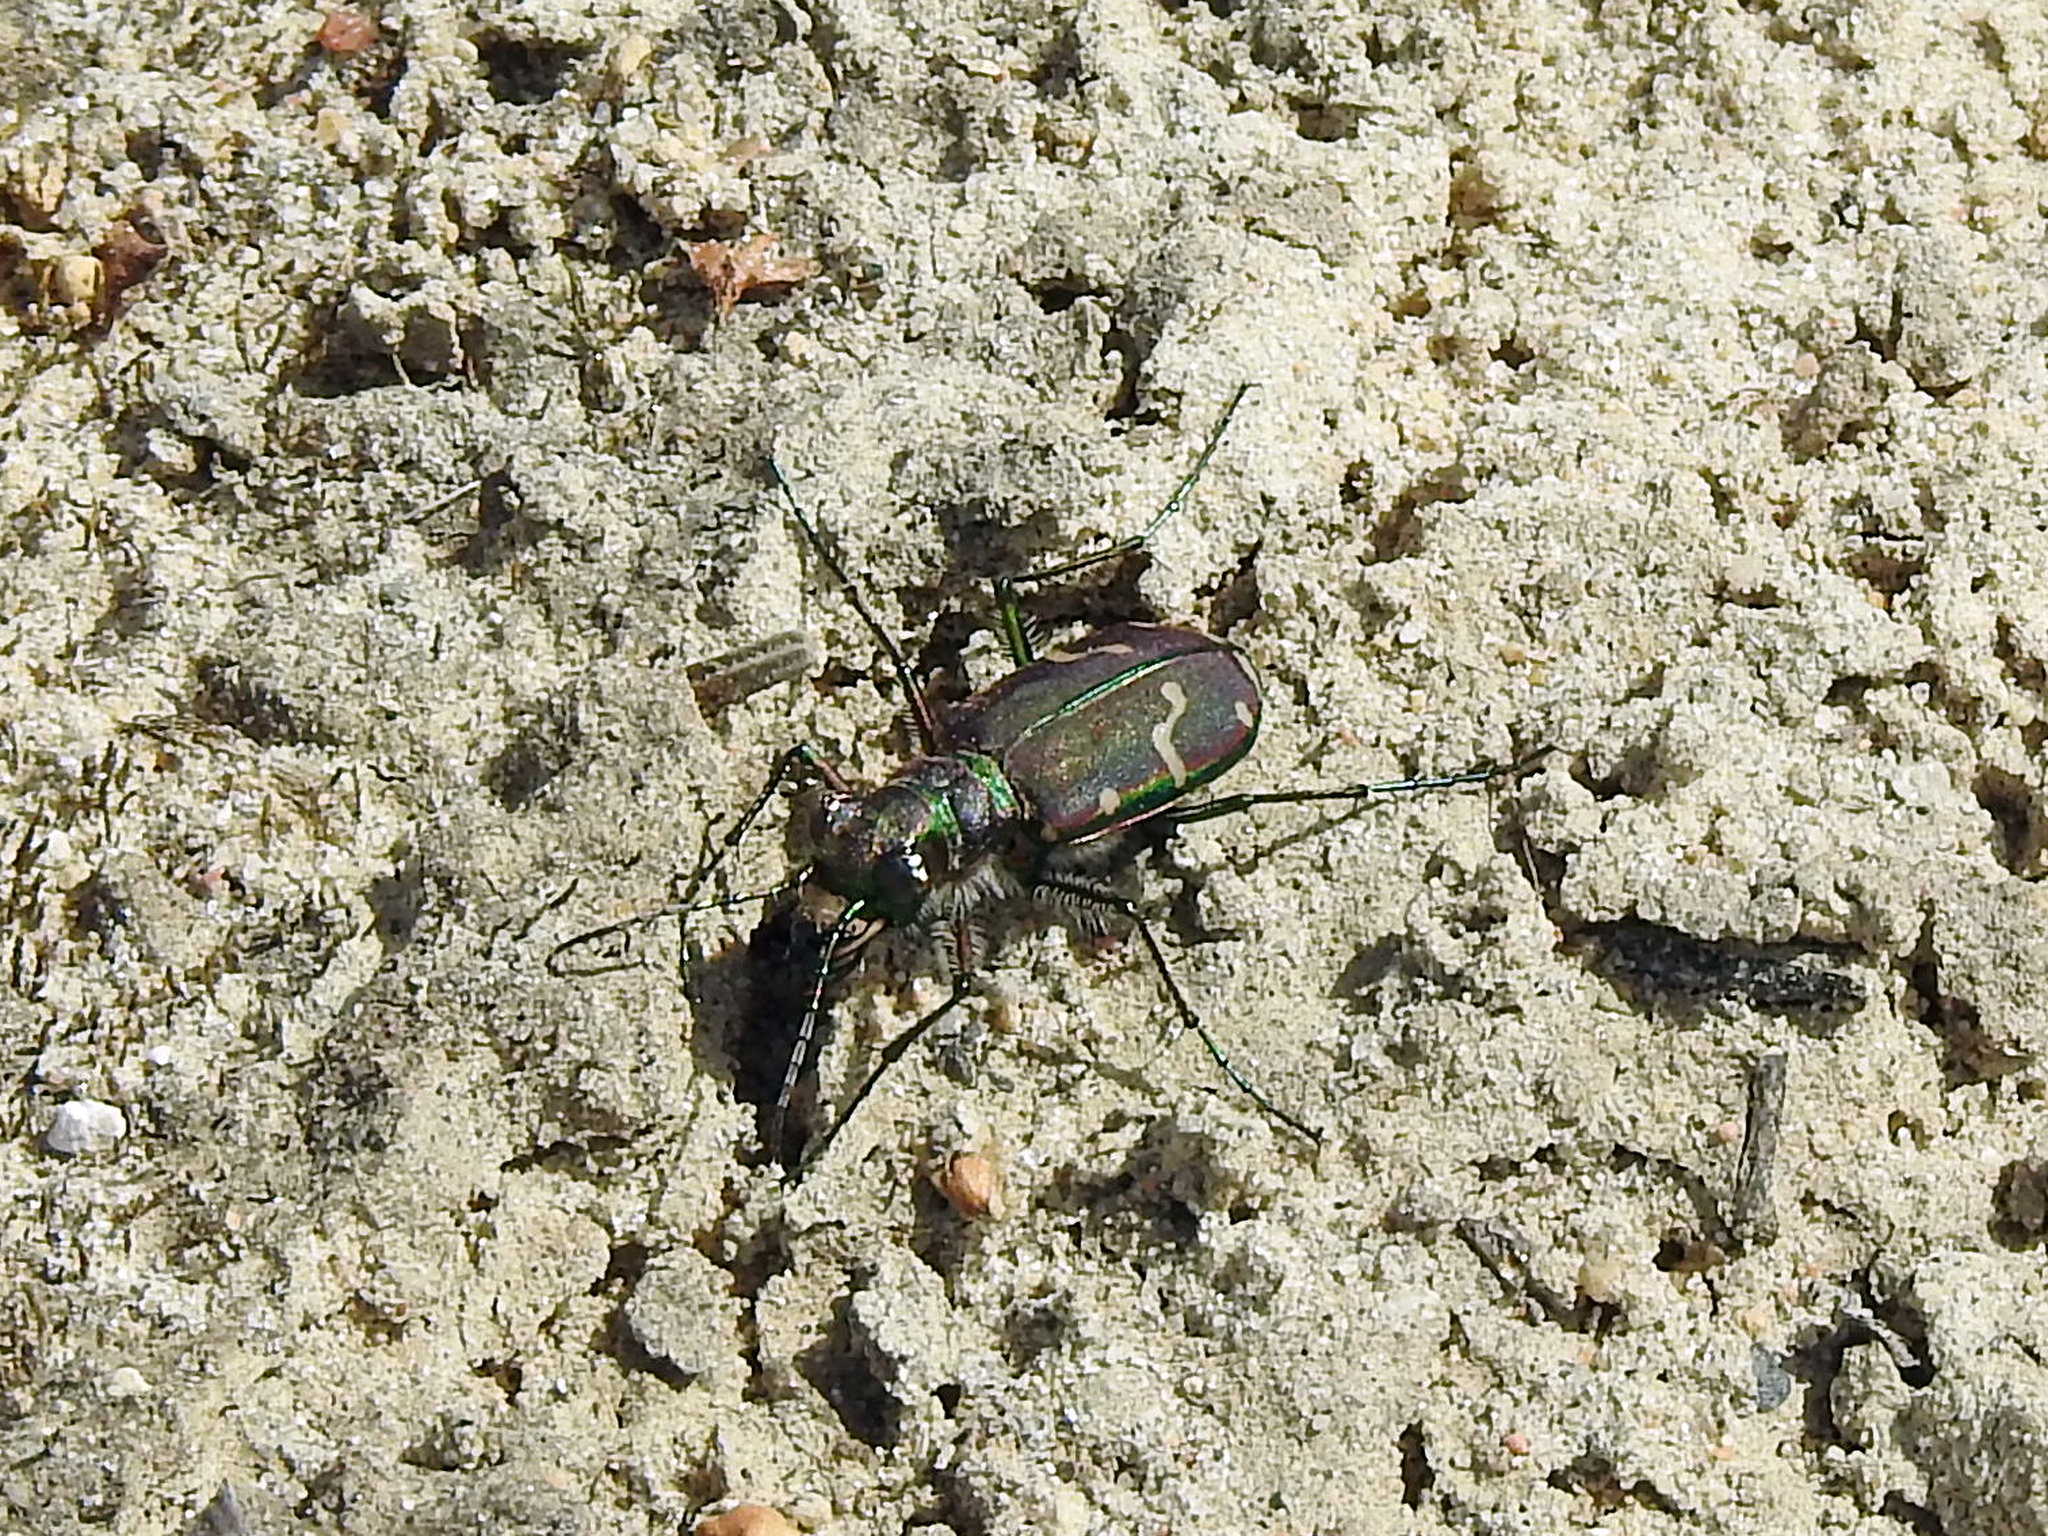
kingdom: Animalia
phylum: Arthropoda
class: Insecta
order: Coleoptera
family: Carabidae
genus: Cicindela
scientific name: Cicindela limbalis
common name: Common claybank tiger beetle
